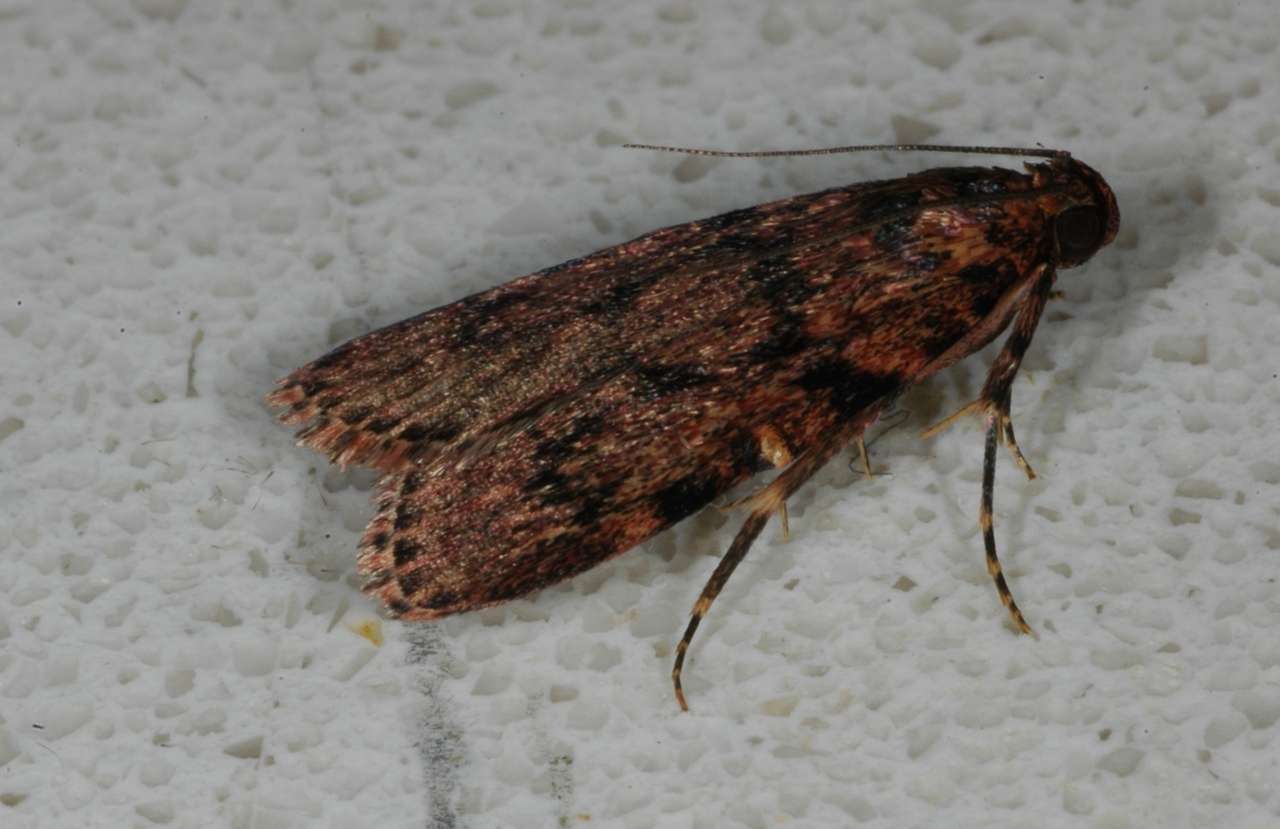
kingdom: Animalia
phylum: Arthropoda
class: Insecta
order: Lepidoptera
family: Pyralidae
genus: Mimaglossa
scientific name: Mimaglossa nauplialis
